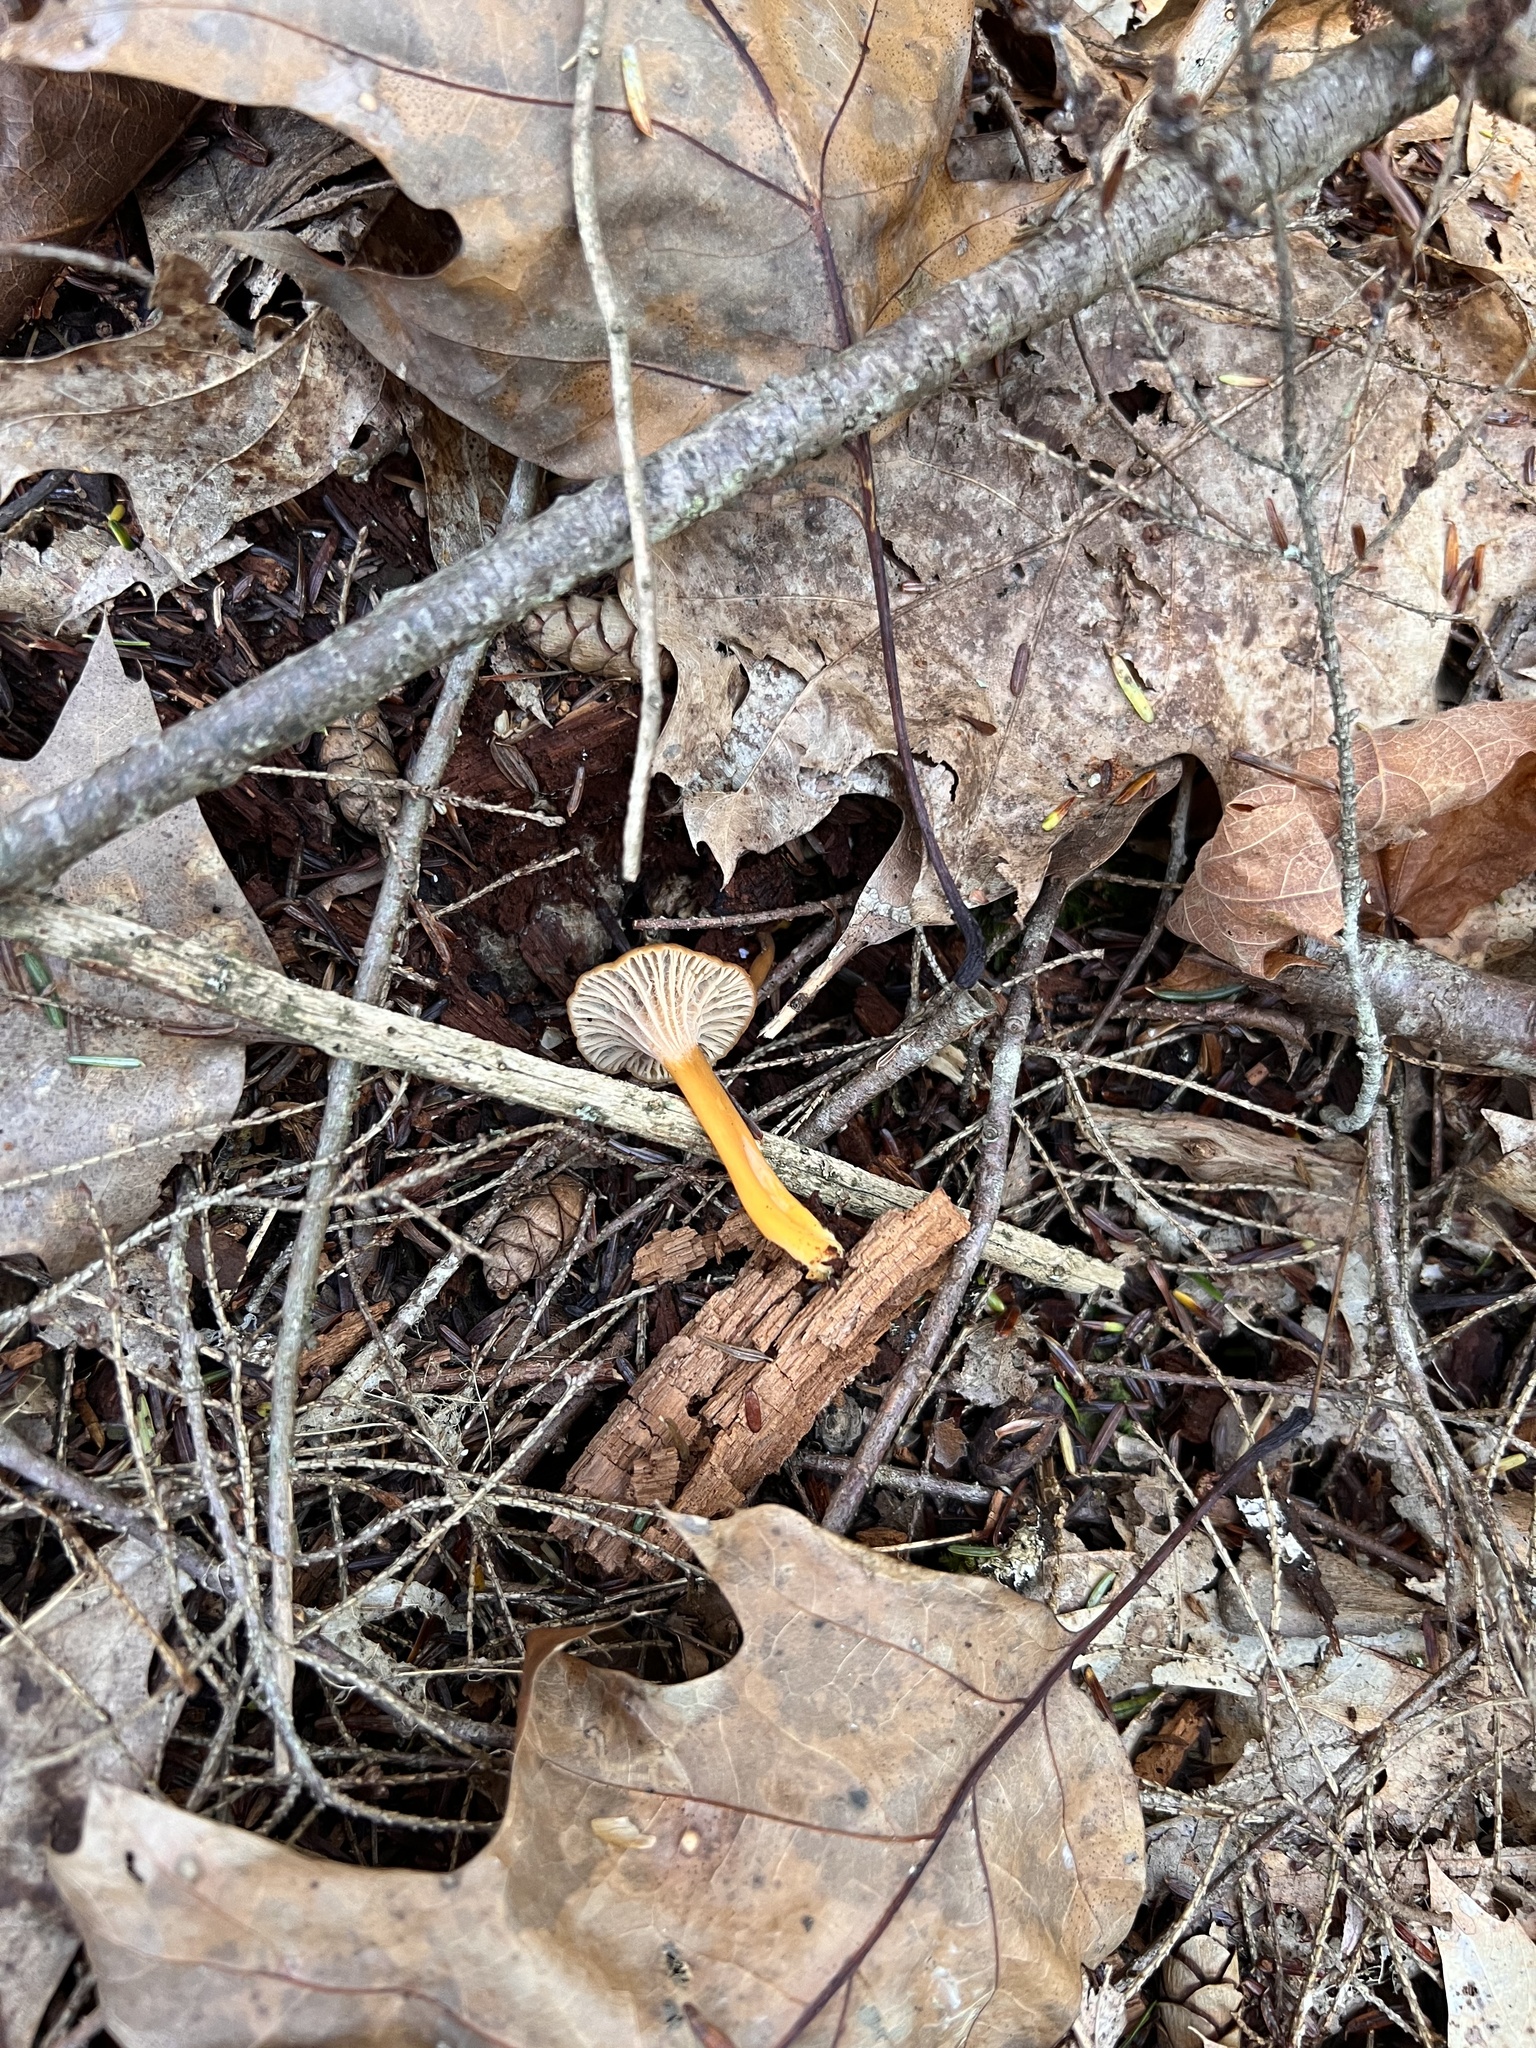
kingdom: Fungi
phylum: Basidiomycota
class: Agaricomycetes
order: Cantharellales
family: Hydnaceae
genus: Craterellus
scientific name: Craterellus tubaeformis
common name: Yellowfoot
